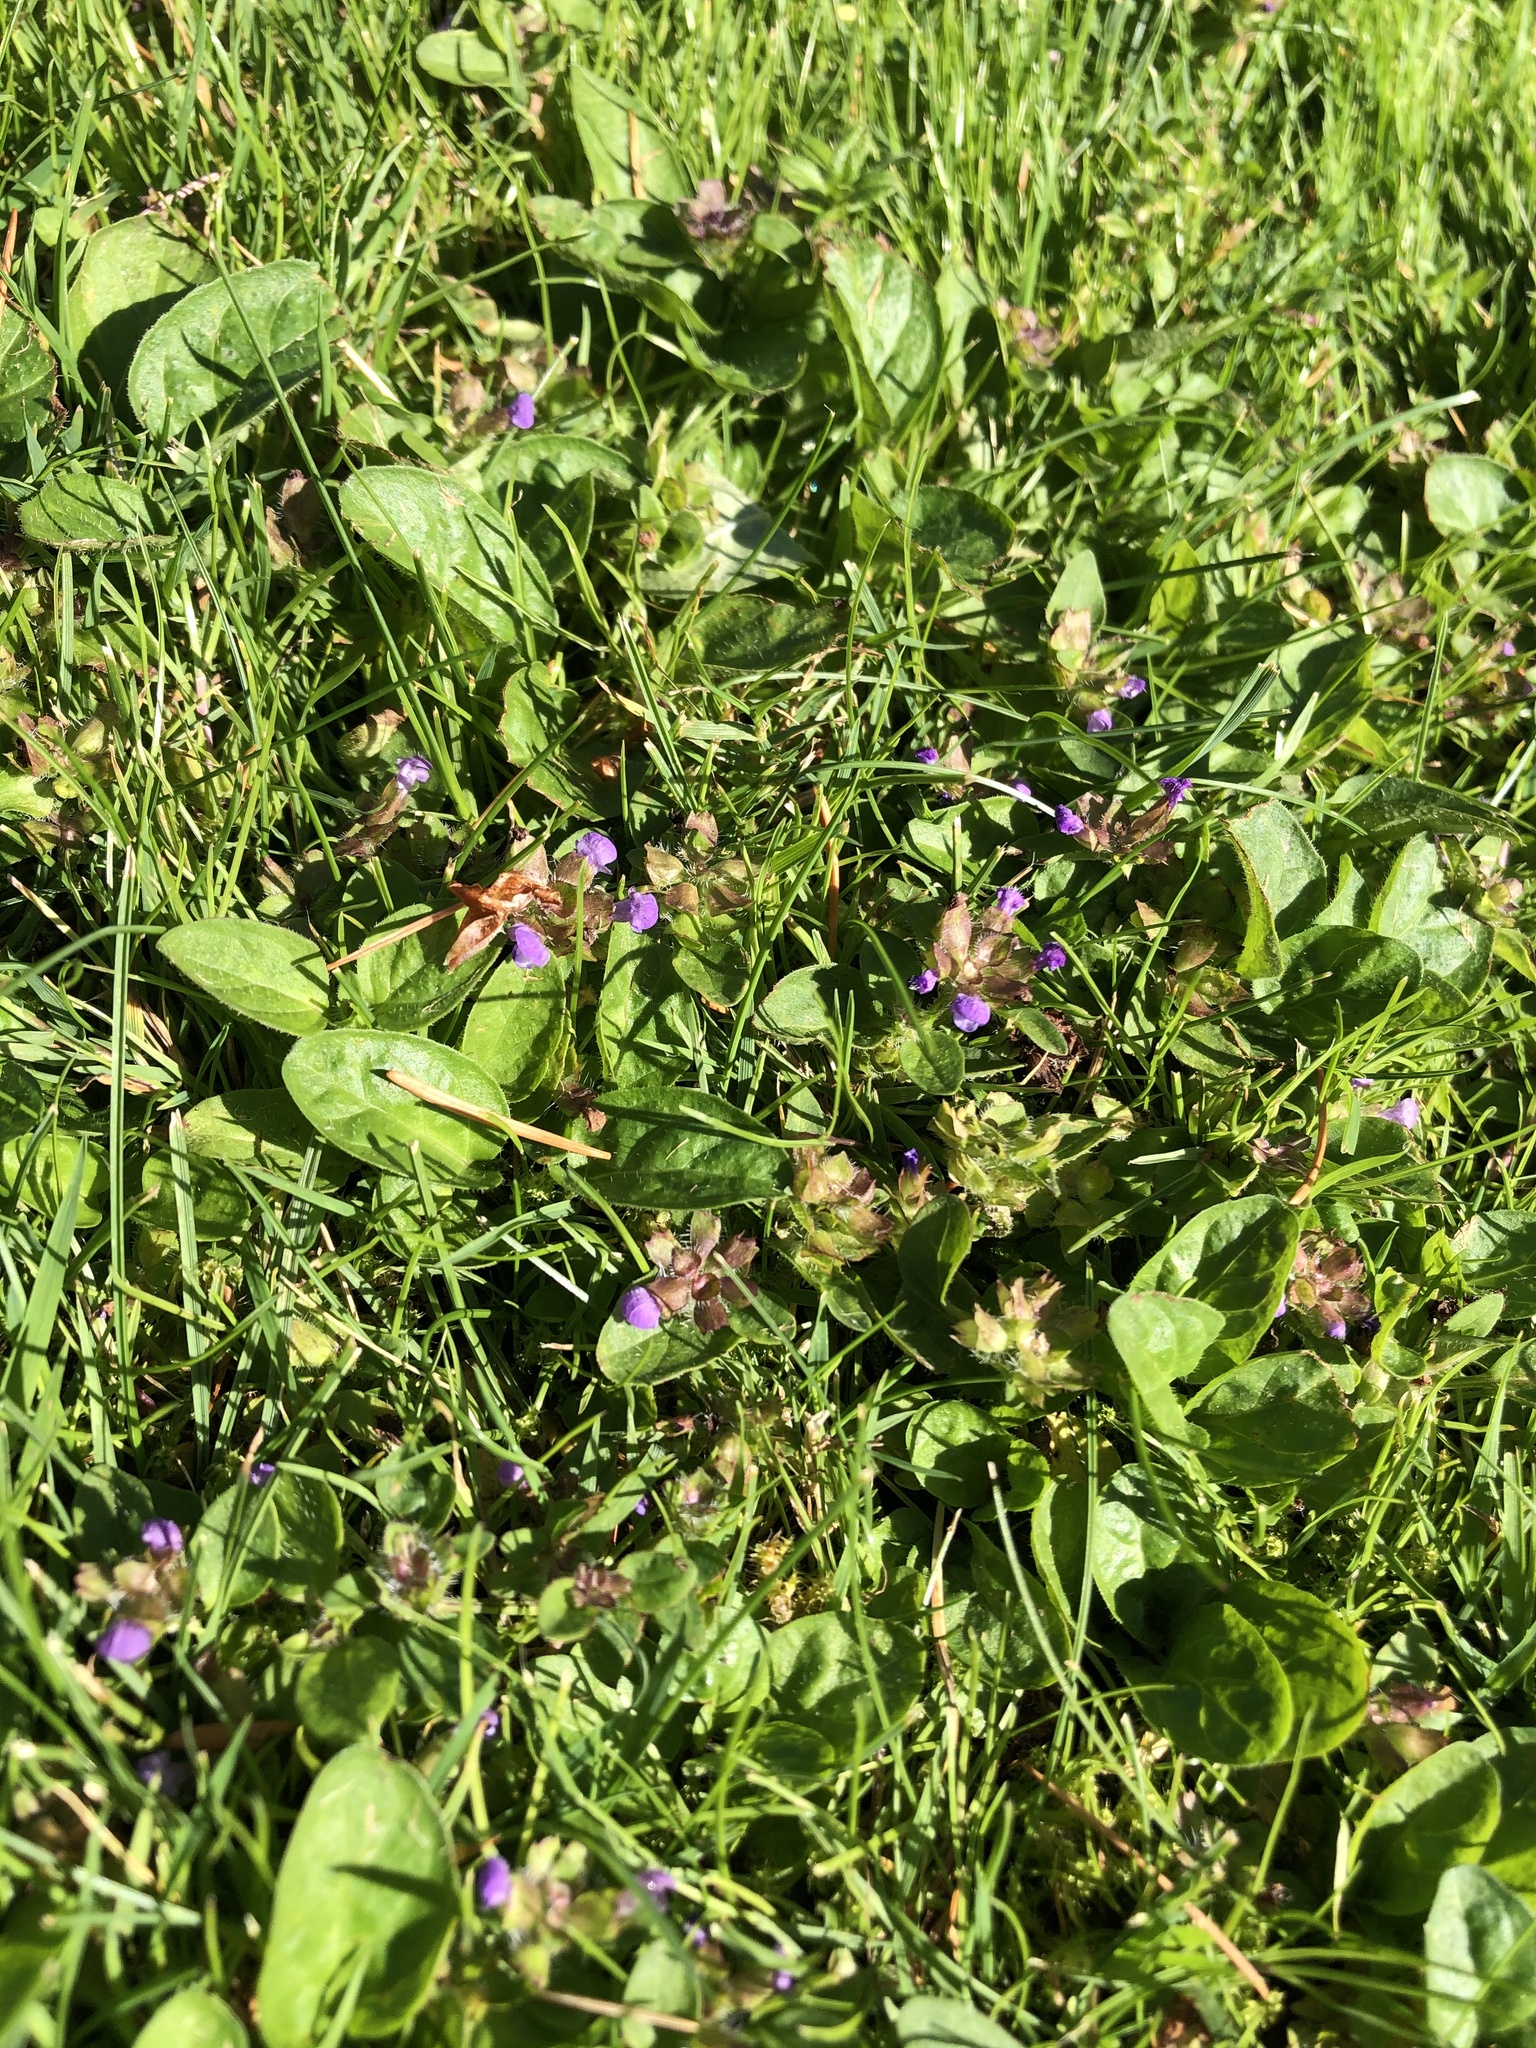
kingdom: Plantae
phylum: Tracheophyta
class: Magnoliopsida
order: Lamiales
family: Lamiaceae
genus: Prunella
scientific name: Prunella vulgaris
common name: Heal-all
